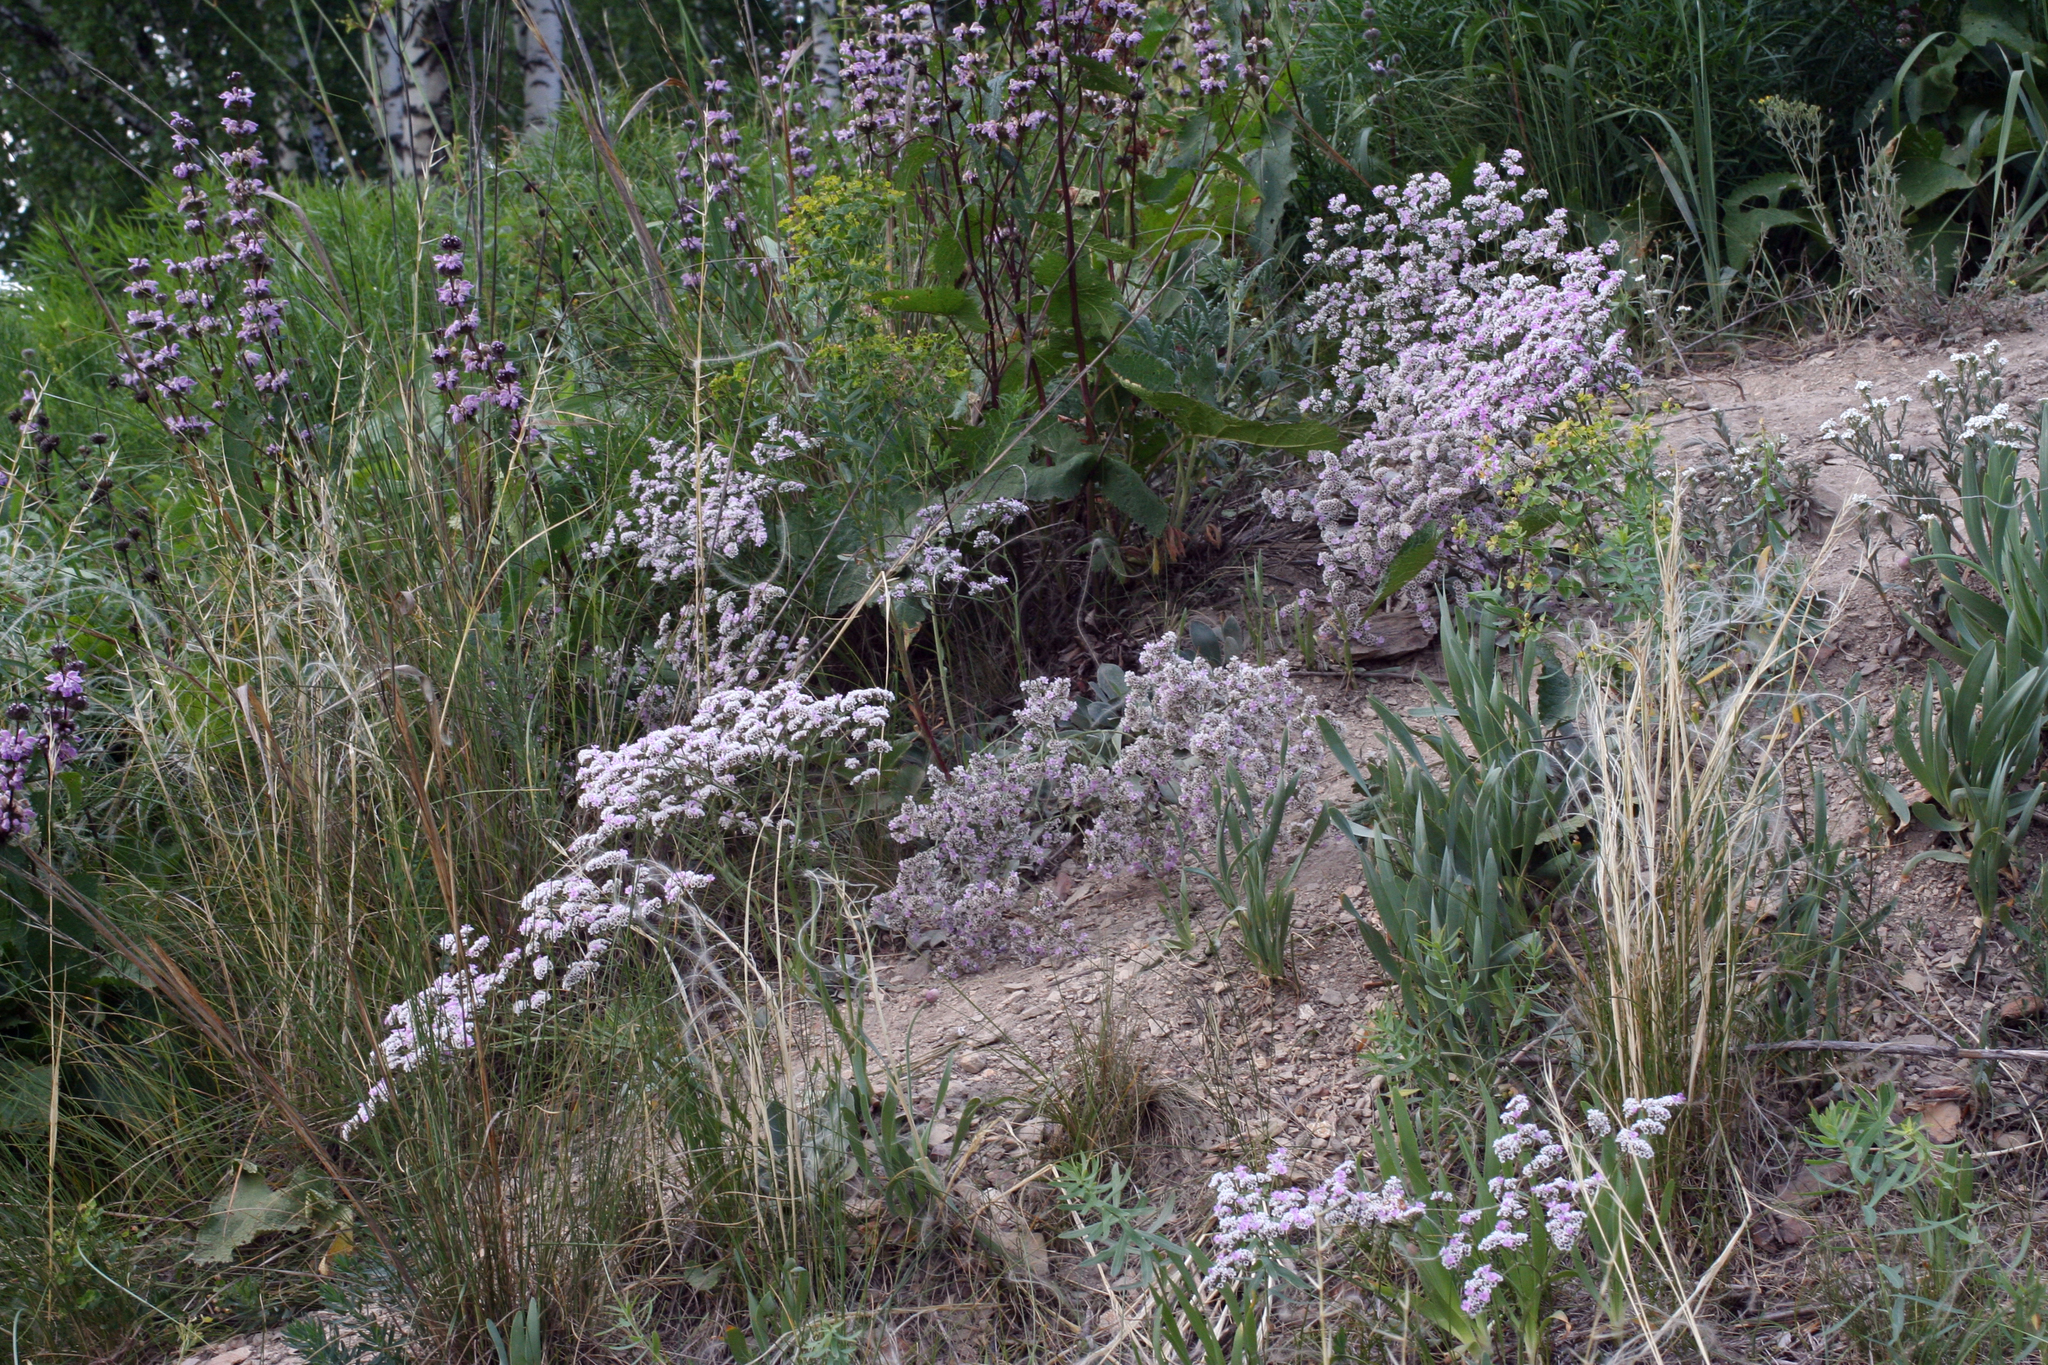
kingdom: Plantae
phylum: Tracheophyta
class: Magnoliopsida
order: Caryophyllales
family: Plumbaginaceae
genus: Goniolimon
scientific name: Goniolimon speciosum
